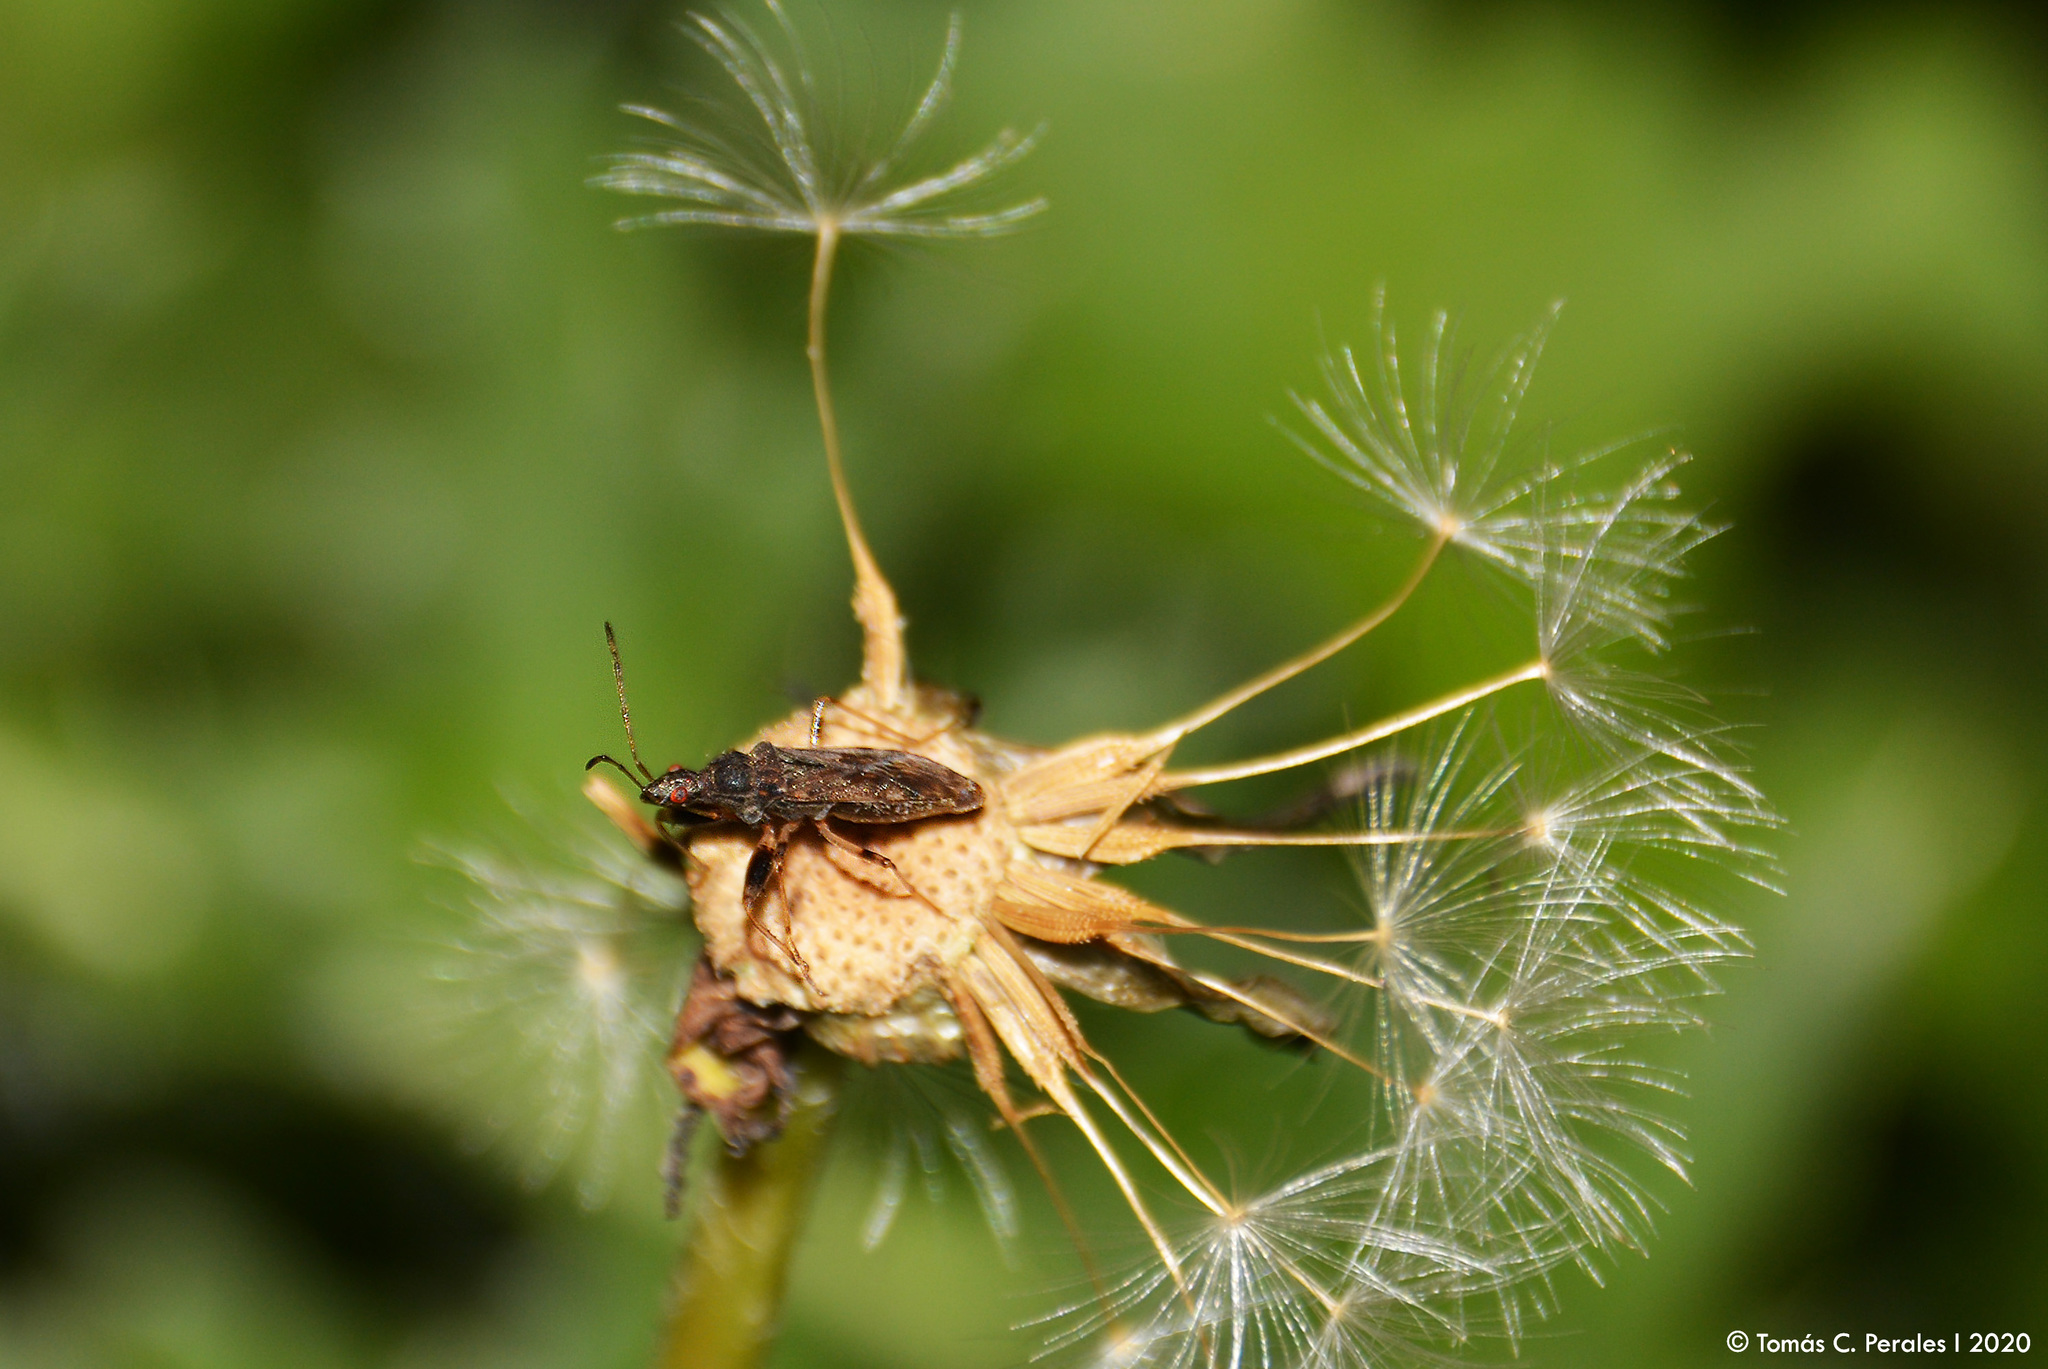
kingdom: Animalia
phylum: Arthropoda
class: Insecta
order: Hemiptera
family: Rhyparochromidae
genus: Paisana
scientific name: Paisana brachialis
